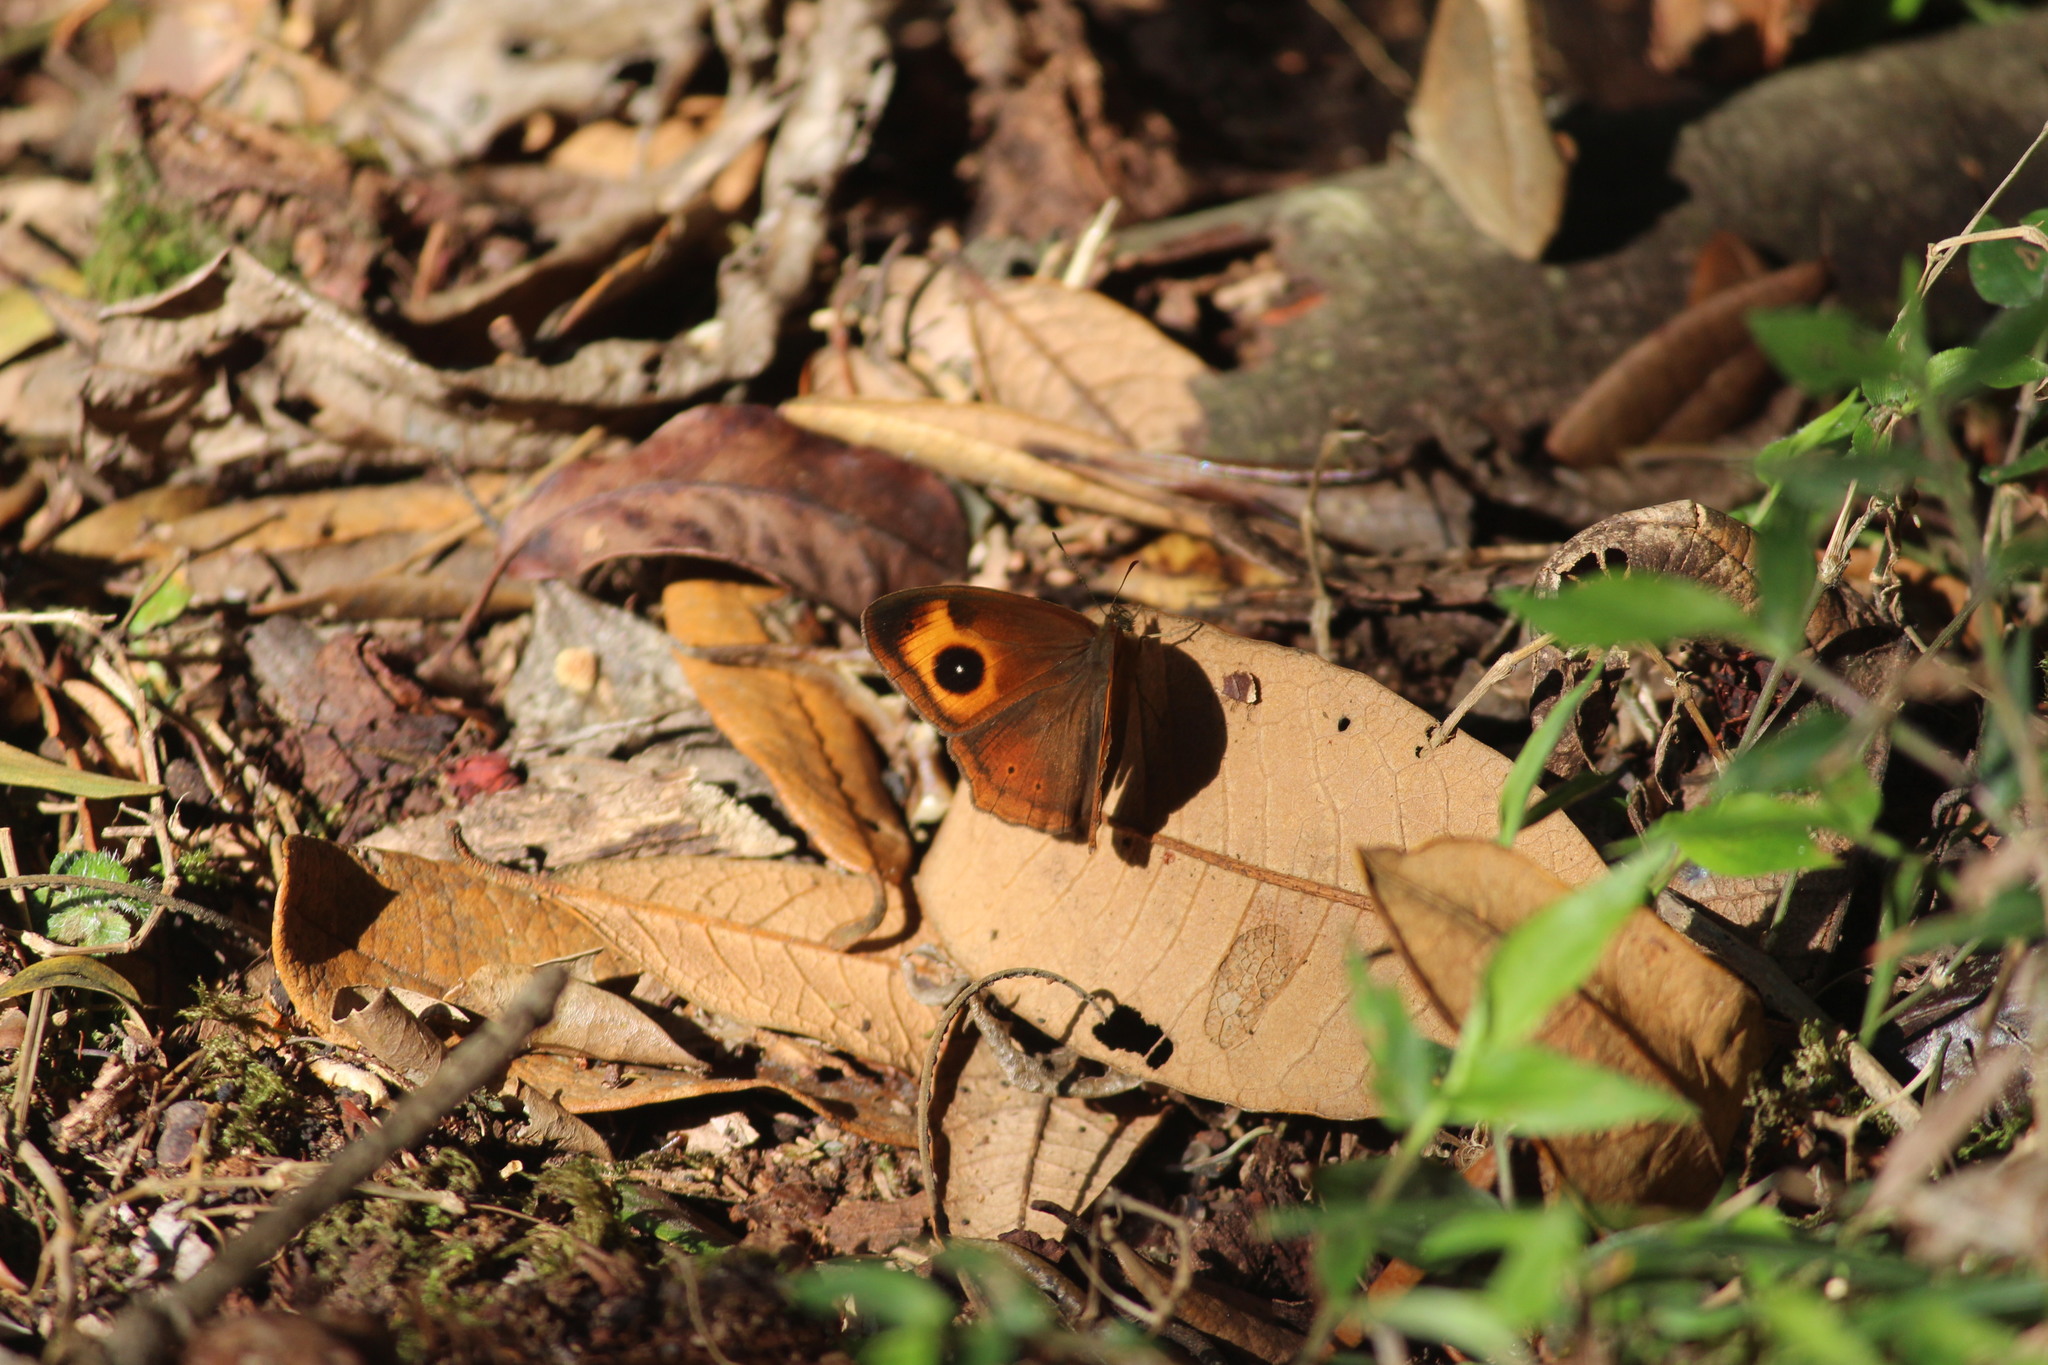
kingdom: Animalia
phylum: Arthropoda
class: Insecta
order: Lepidoptera
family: Nymphalidae
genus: Mycalesis
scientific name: Mycalesis Telinga oculus
